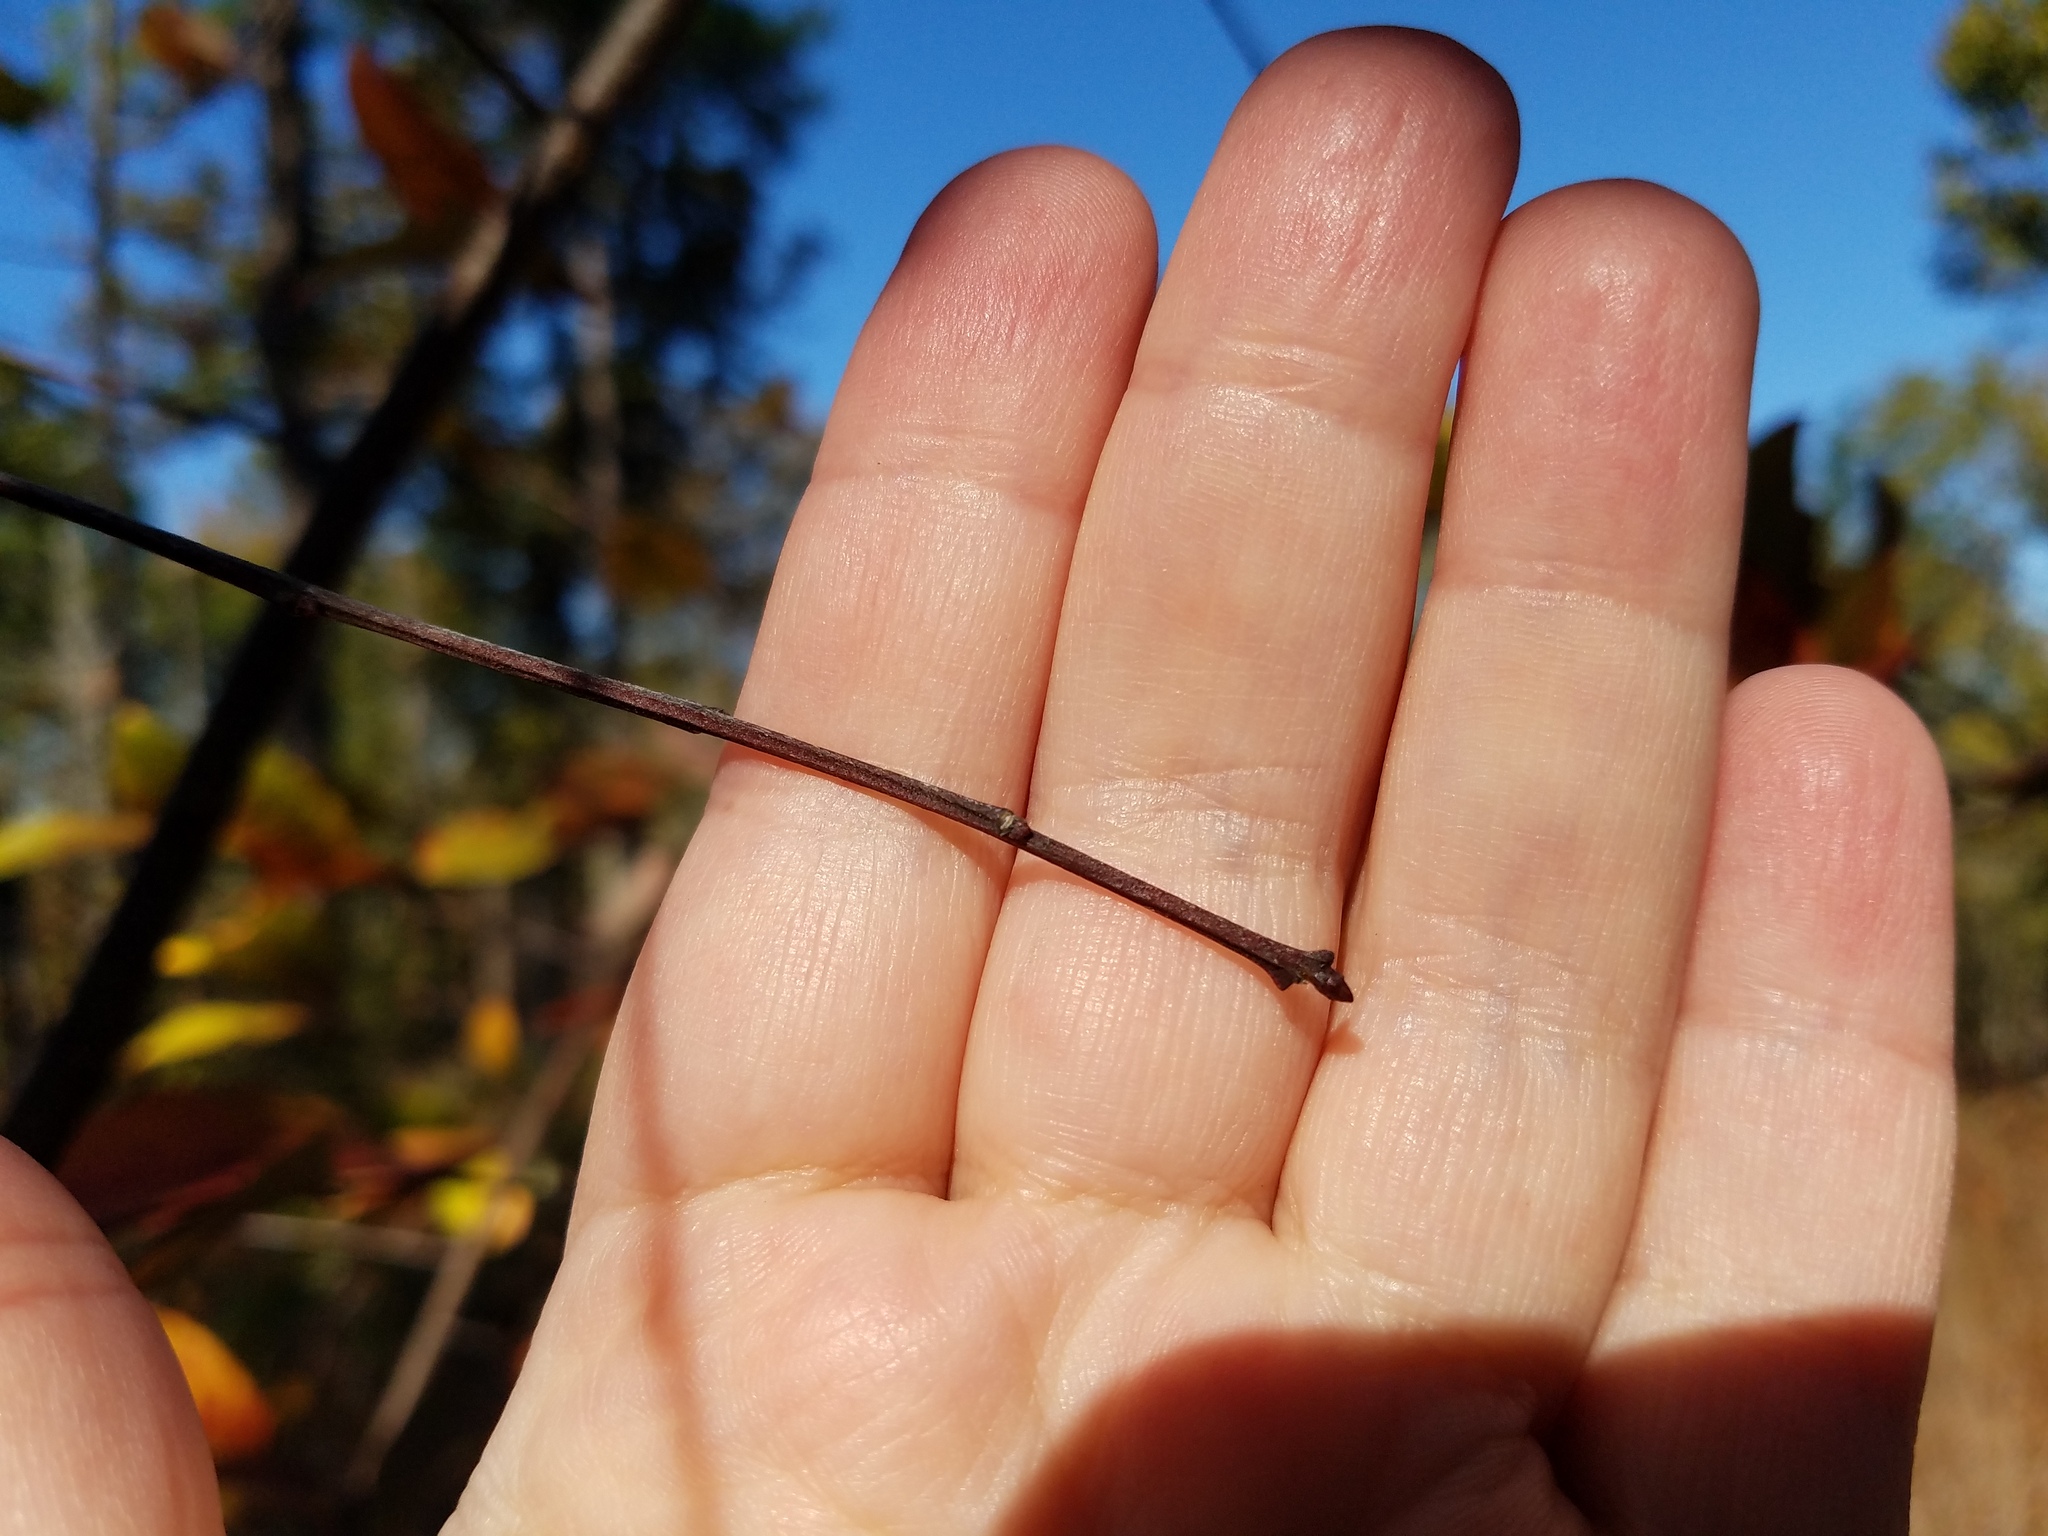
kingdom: Plantae
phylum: Tracheophyta
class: Magnoliopsida
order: Rosales
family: Rosaceae
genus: Prunus
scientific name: Prunus alabamensis
